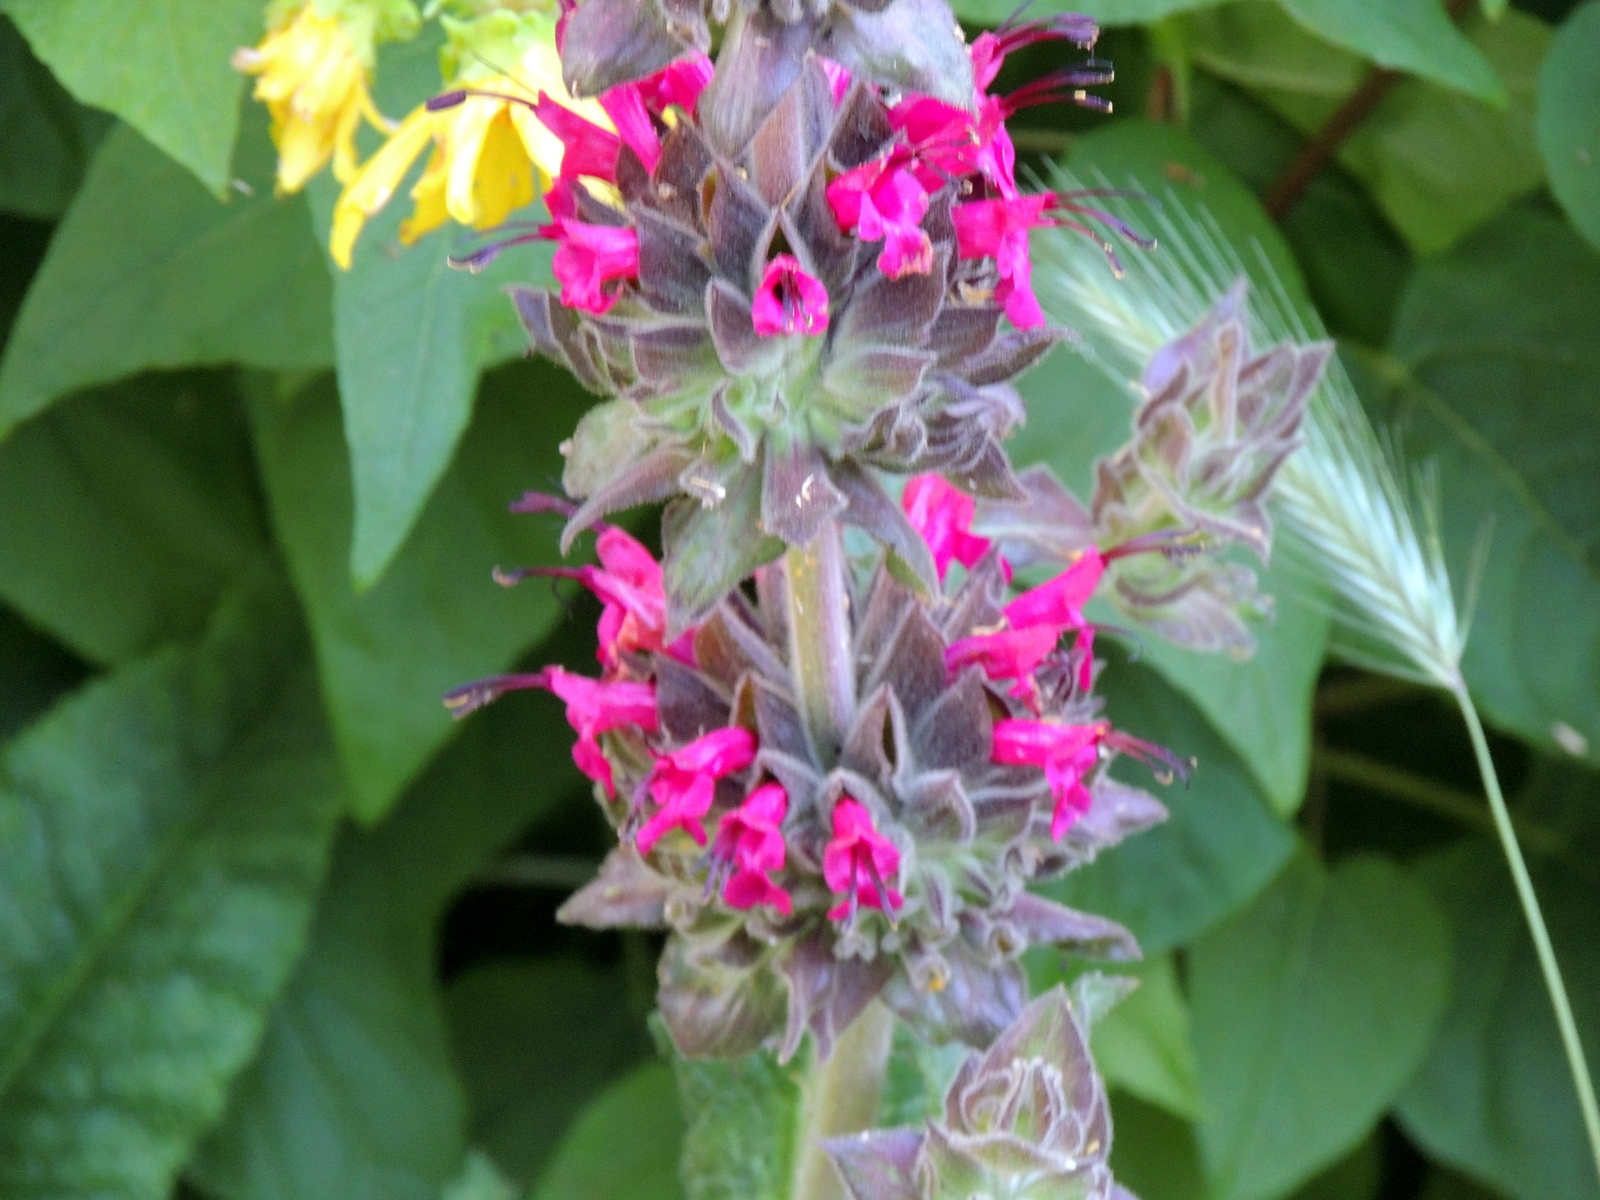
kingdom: Plantae
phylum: Tracheophyta
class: Magnoliopsida
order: Lamiales
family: Lamiaceae
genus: Salvia
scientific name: Salvia spathacea
